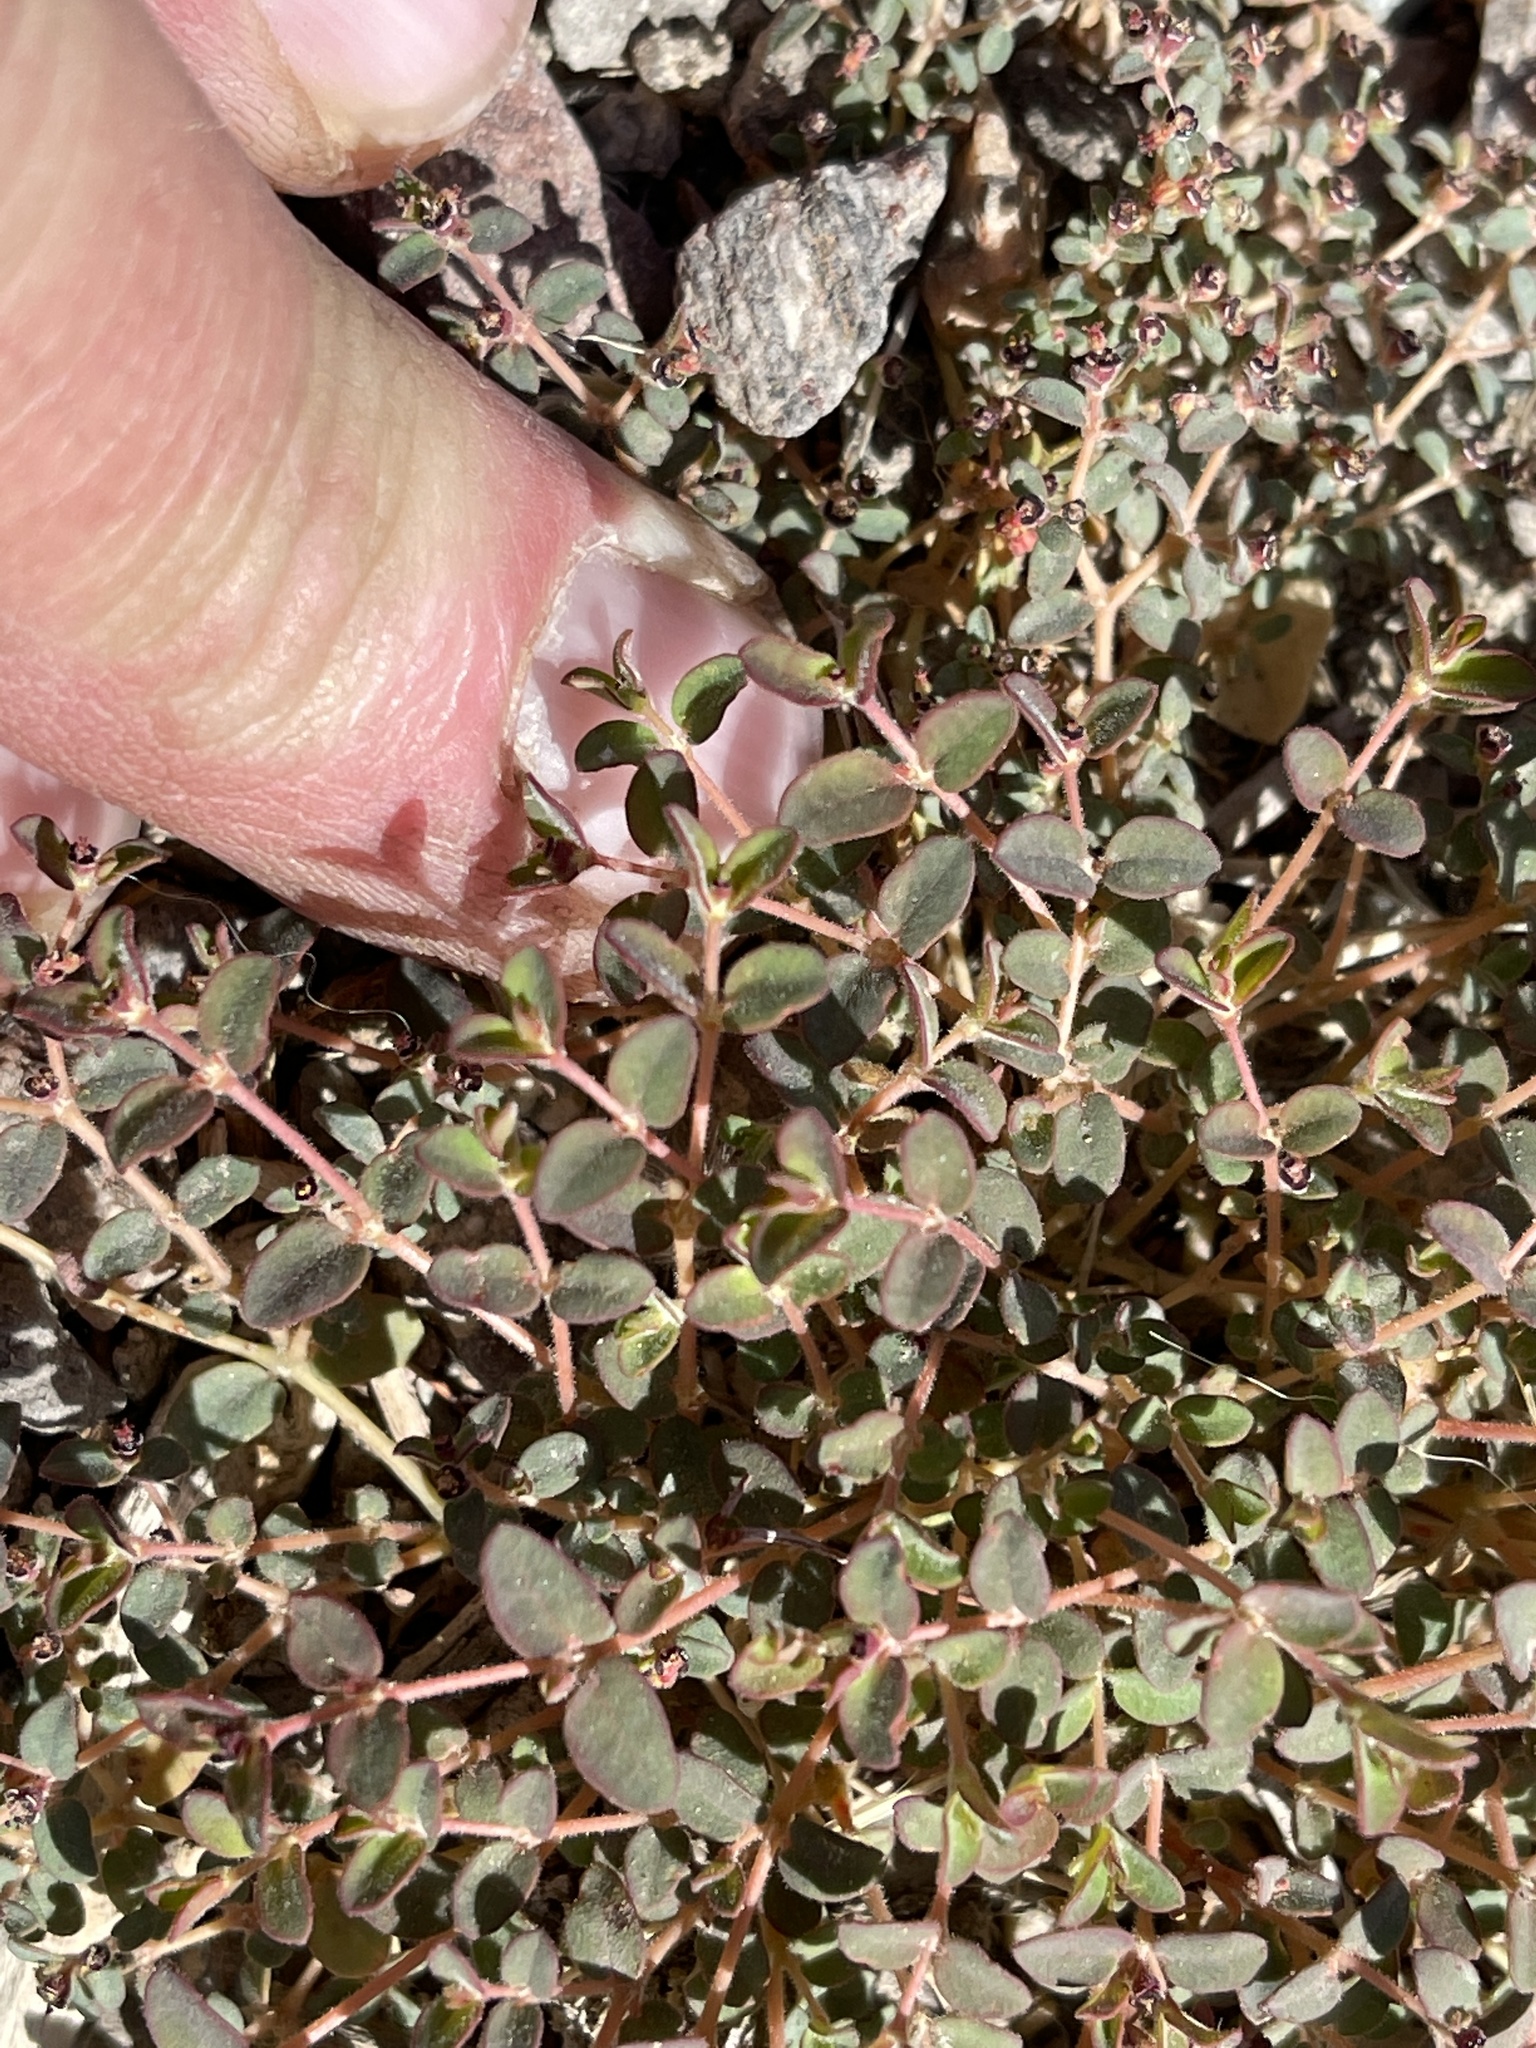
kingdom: Plantae
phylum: Tracheophyta
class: Magnoliopsida
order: Malpighiales
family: Euphorbiaceae
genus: Euphorbia
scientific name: Euphorbia polycarpa
